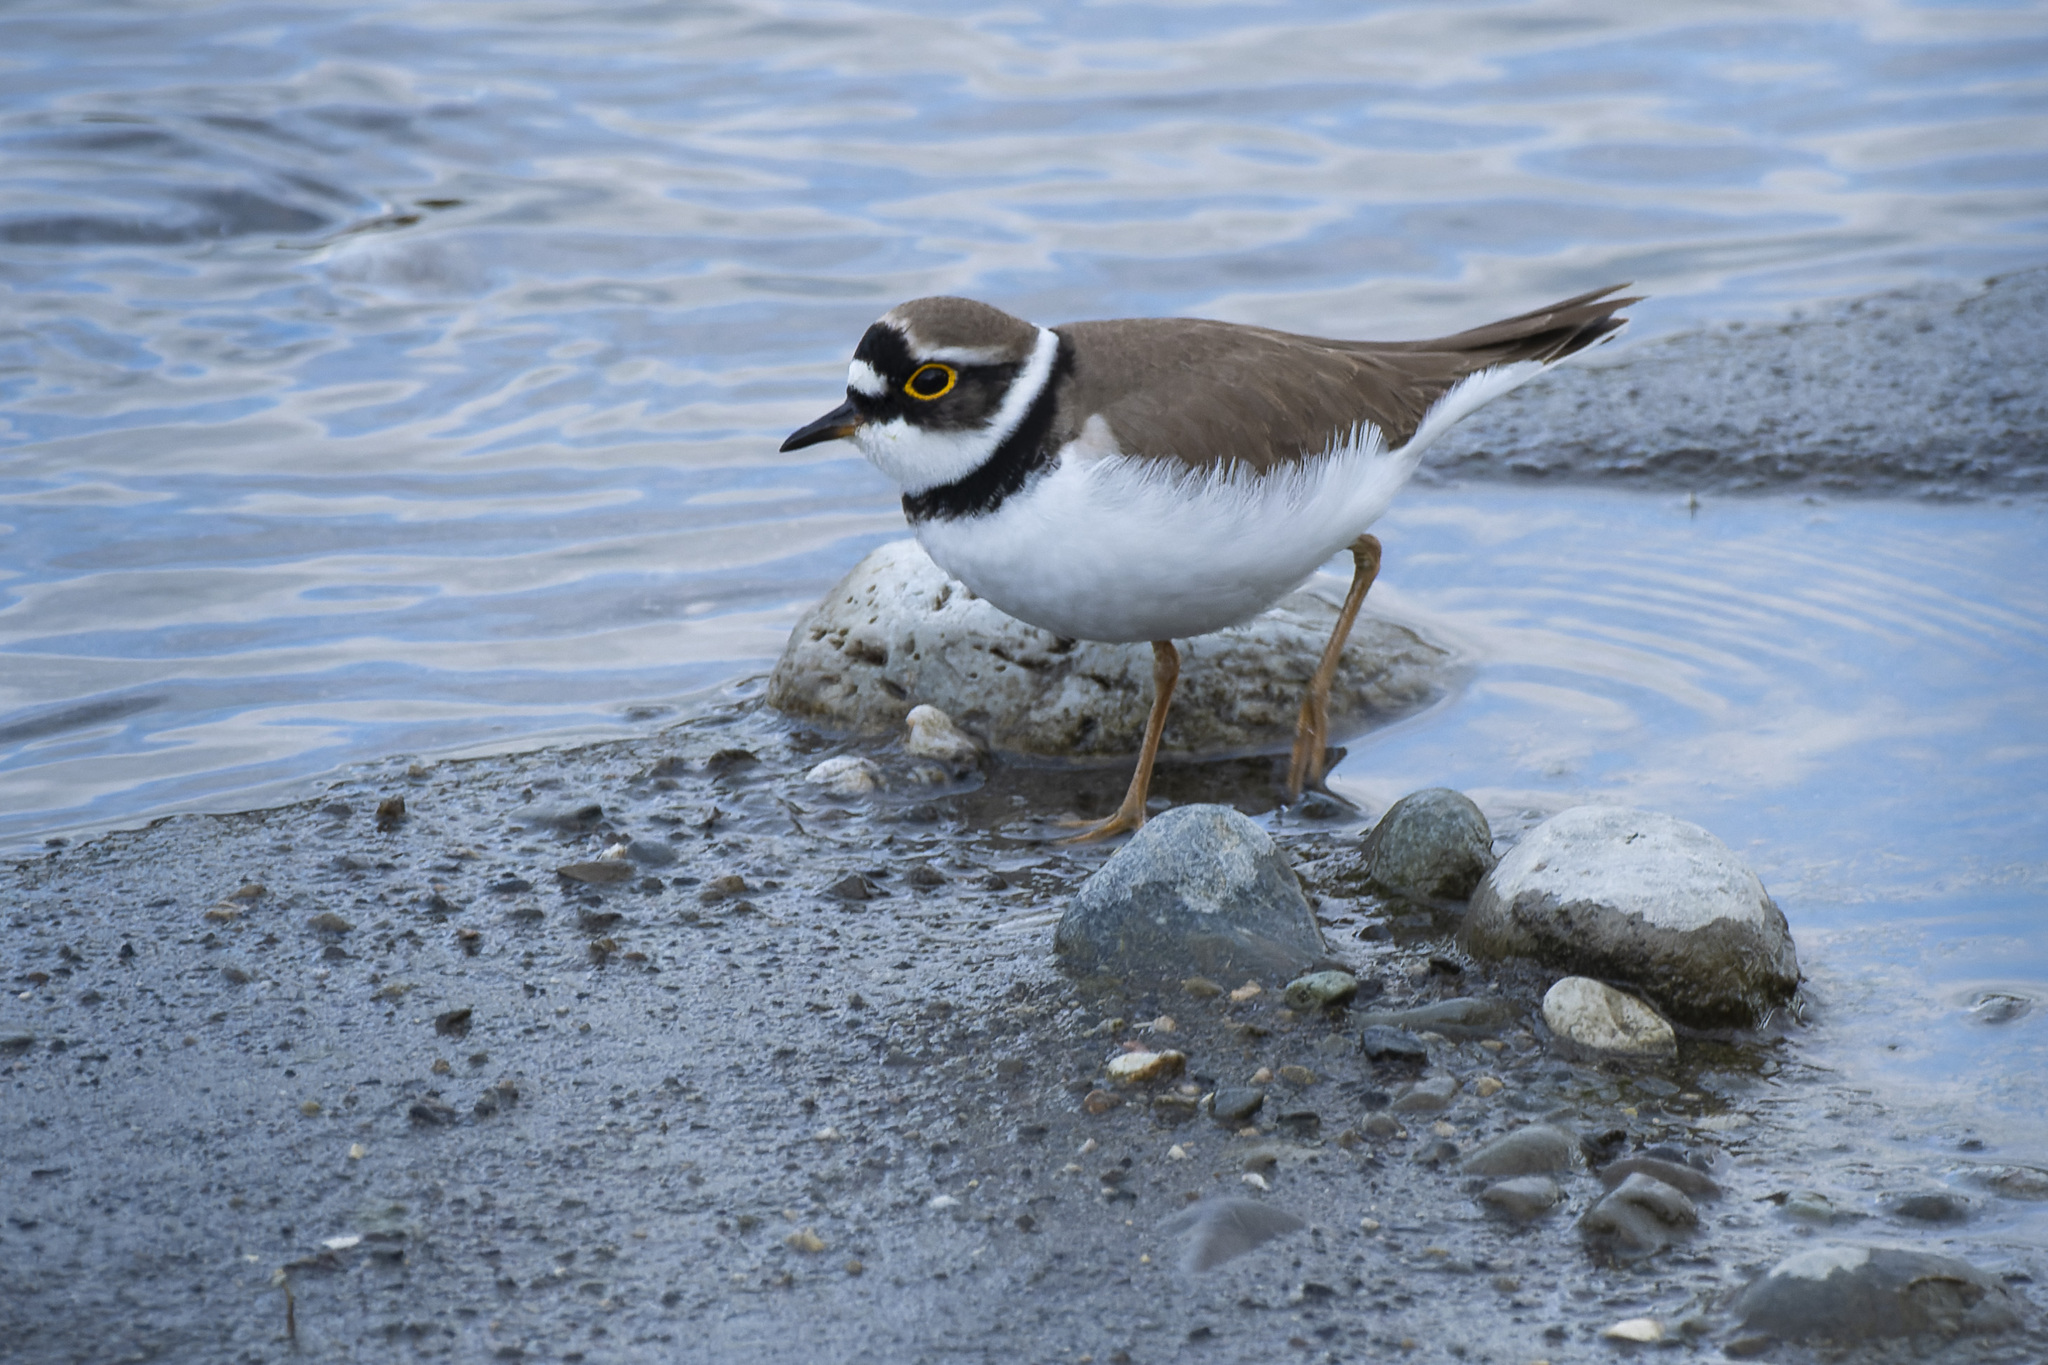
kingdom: Animalia
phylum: Chordata
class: Aves
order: Charadriiformes
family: Charadriidae
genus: Charadrius
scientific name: Charadrius dubius
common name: Little ringed plover
